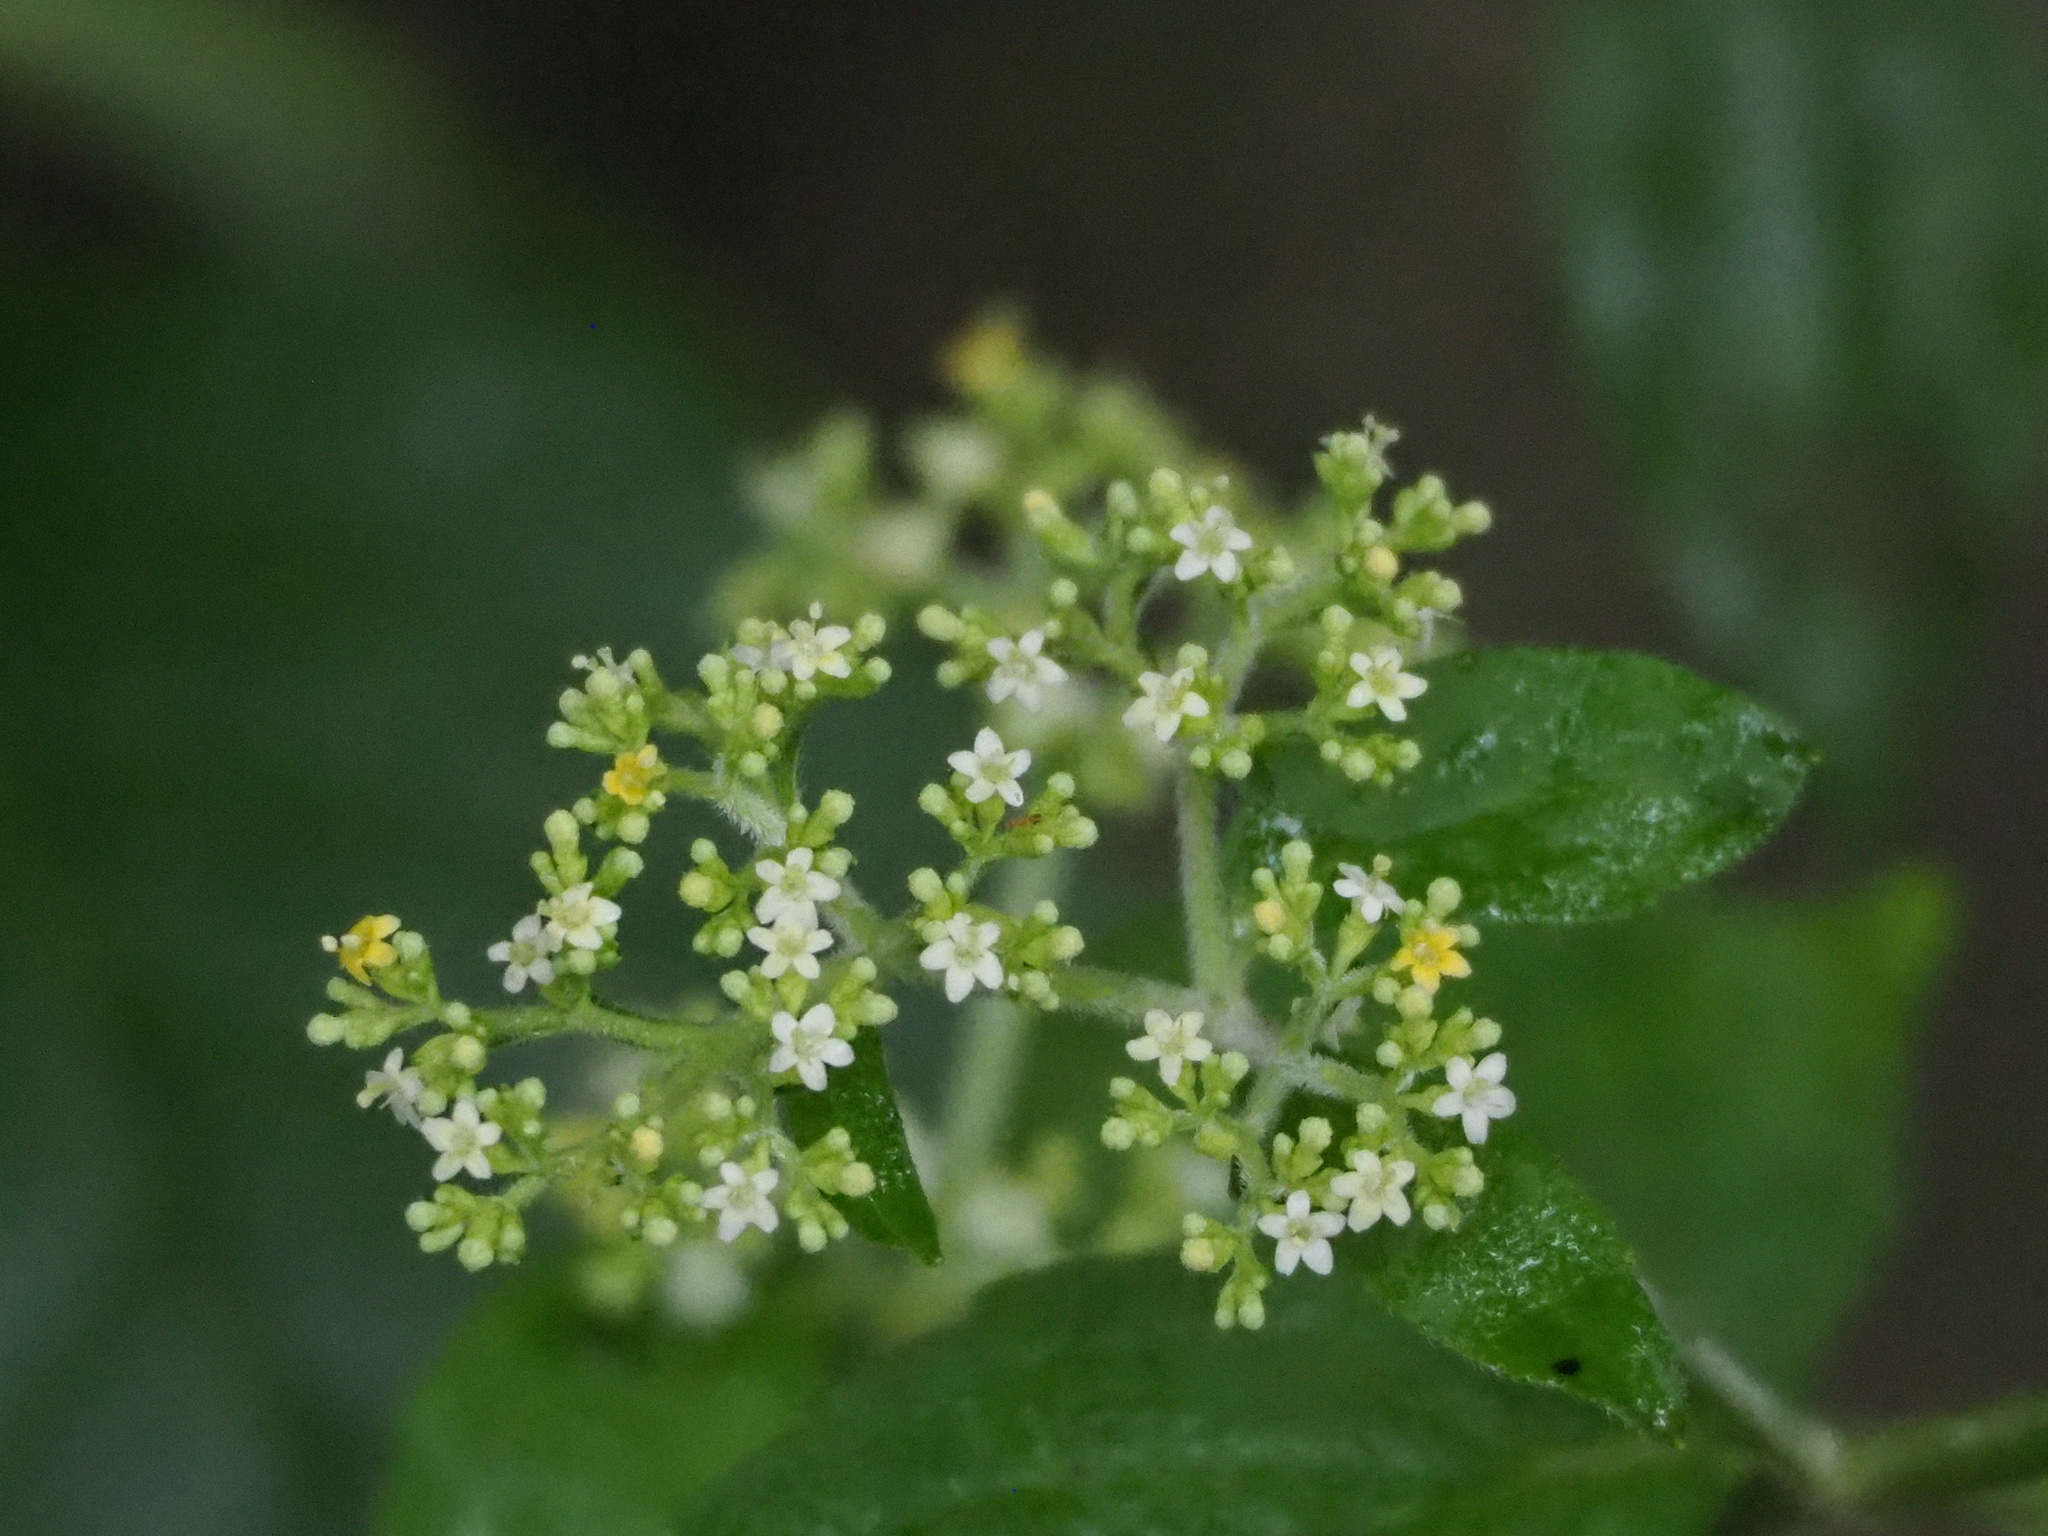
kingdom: Plantae
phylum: Tracheophyta
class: Magnoliopsida
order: Dipsacales
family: Caprifoliaceae
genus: Patrinia
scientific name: Patrinia villosa
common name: Patrinia
